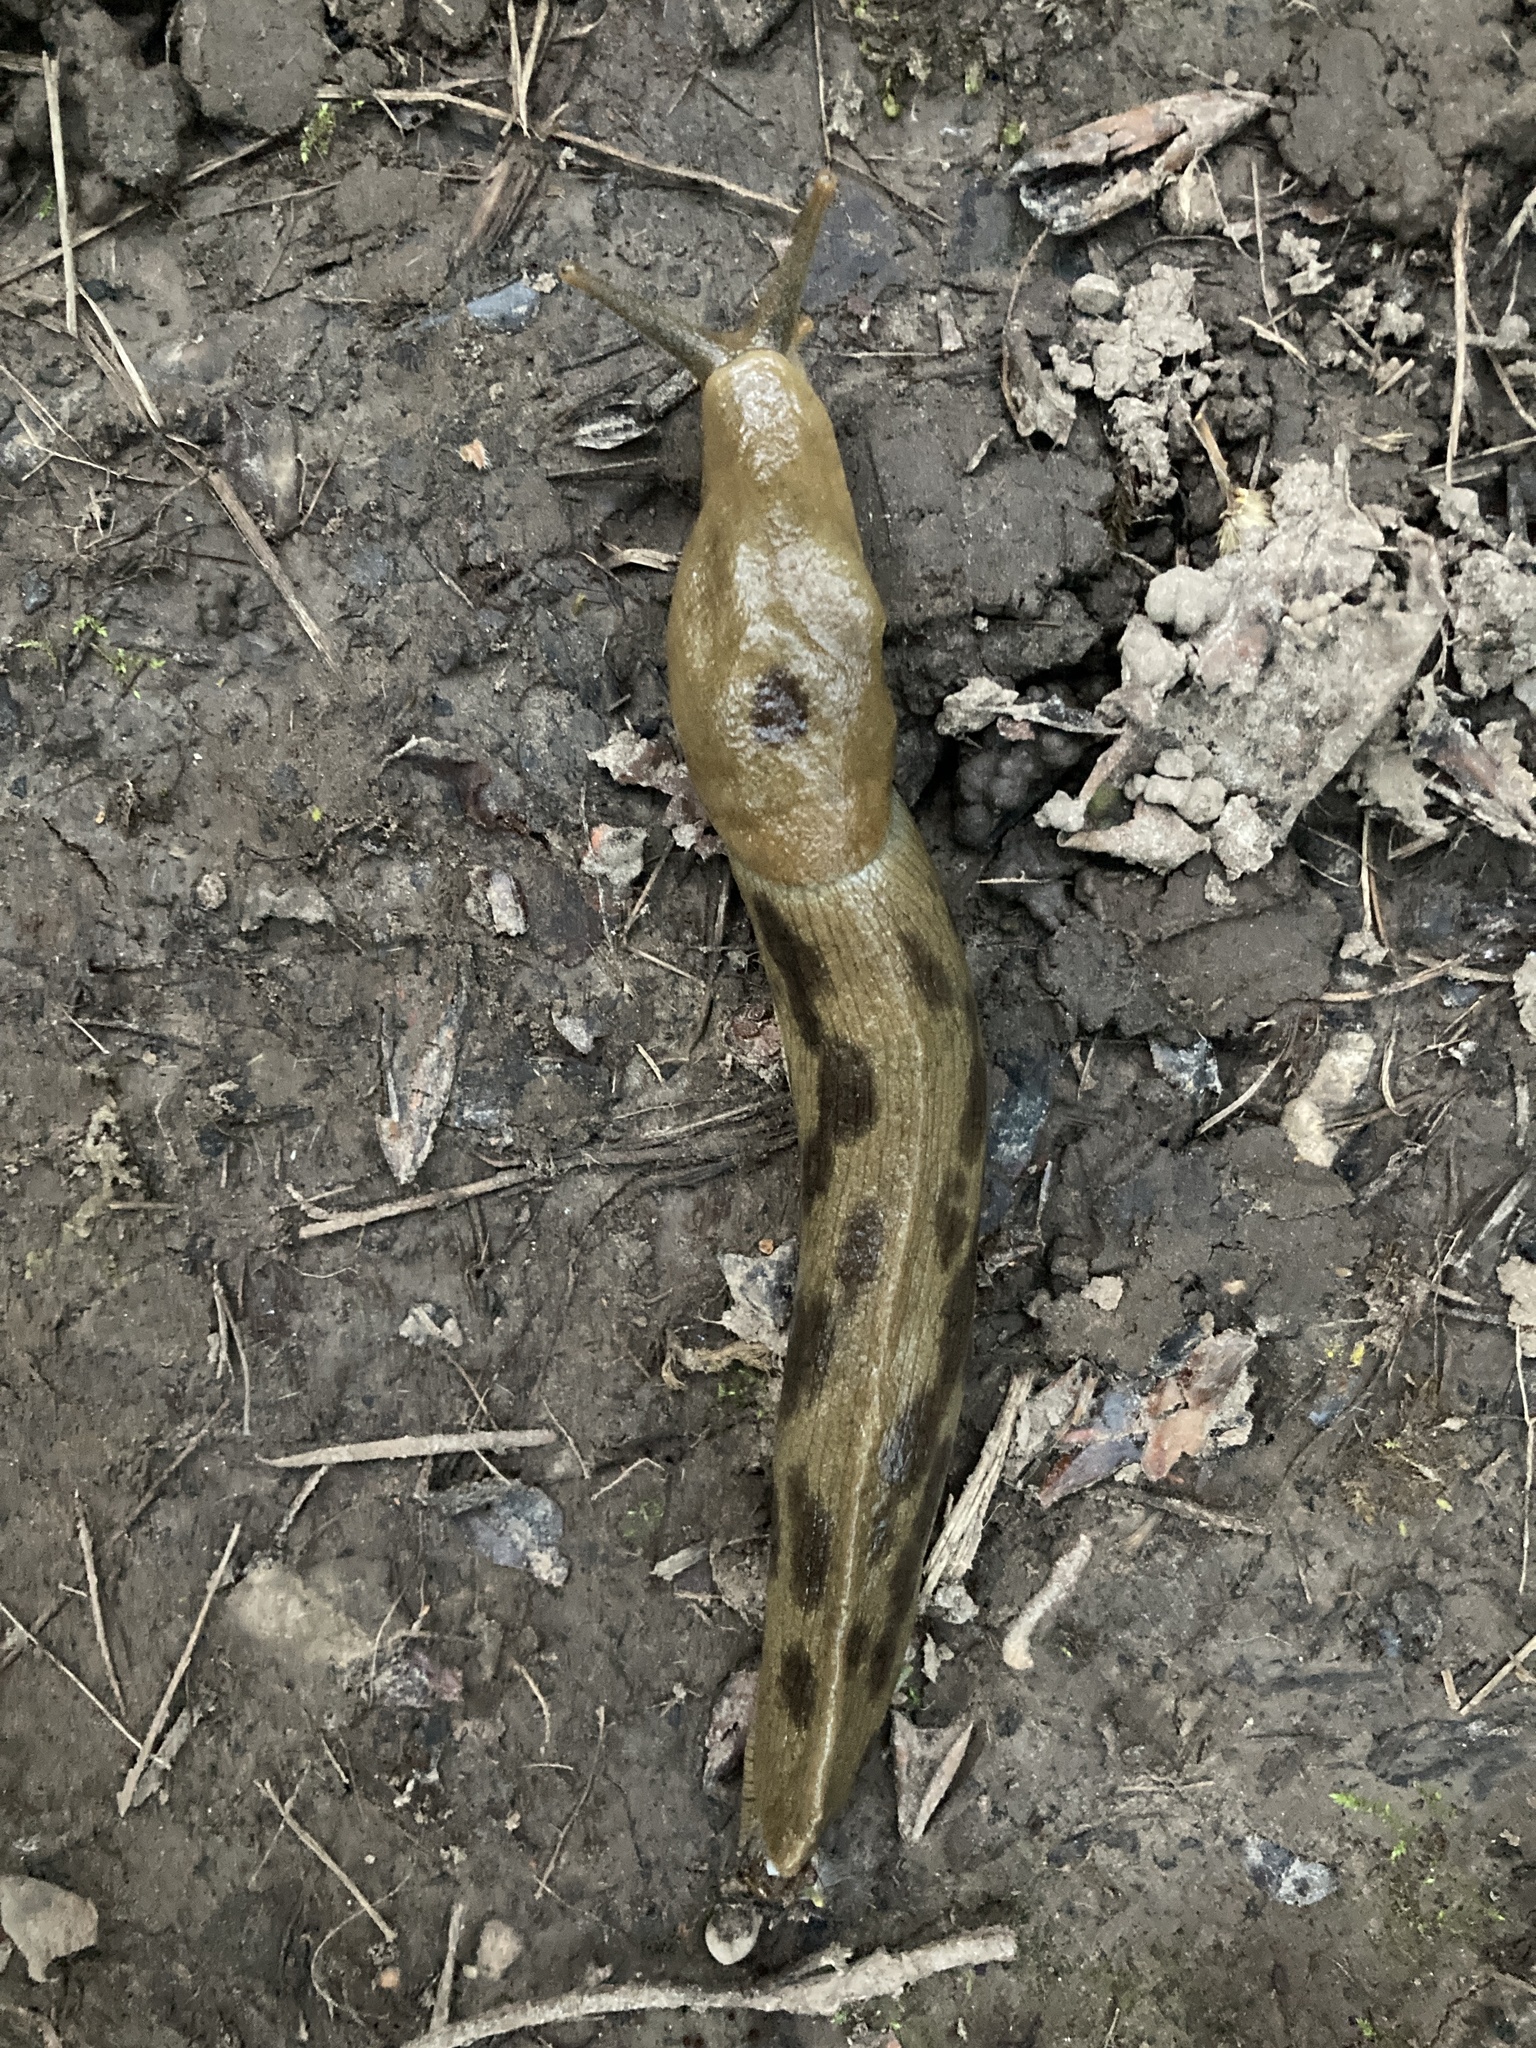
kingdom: Animalia
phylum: Mollusca
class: Gastropoda
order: Stylommatophora
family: Ariolimacidae
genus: Ariolimax
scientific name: Ariolimax columbianus
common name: Pacific banana slug
